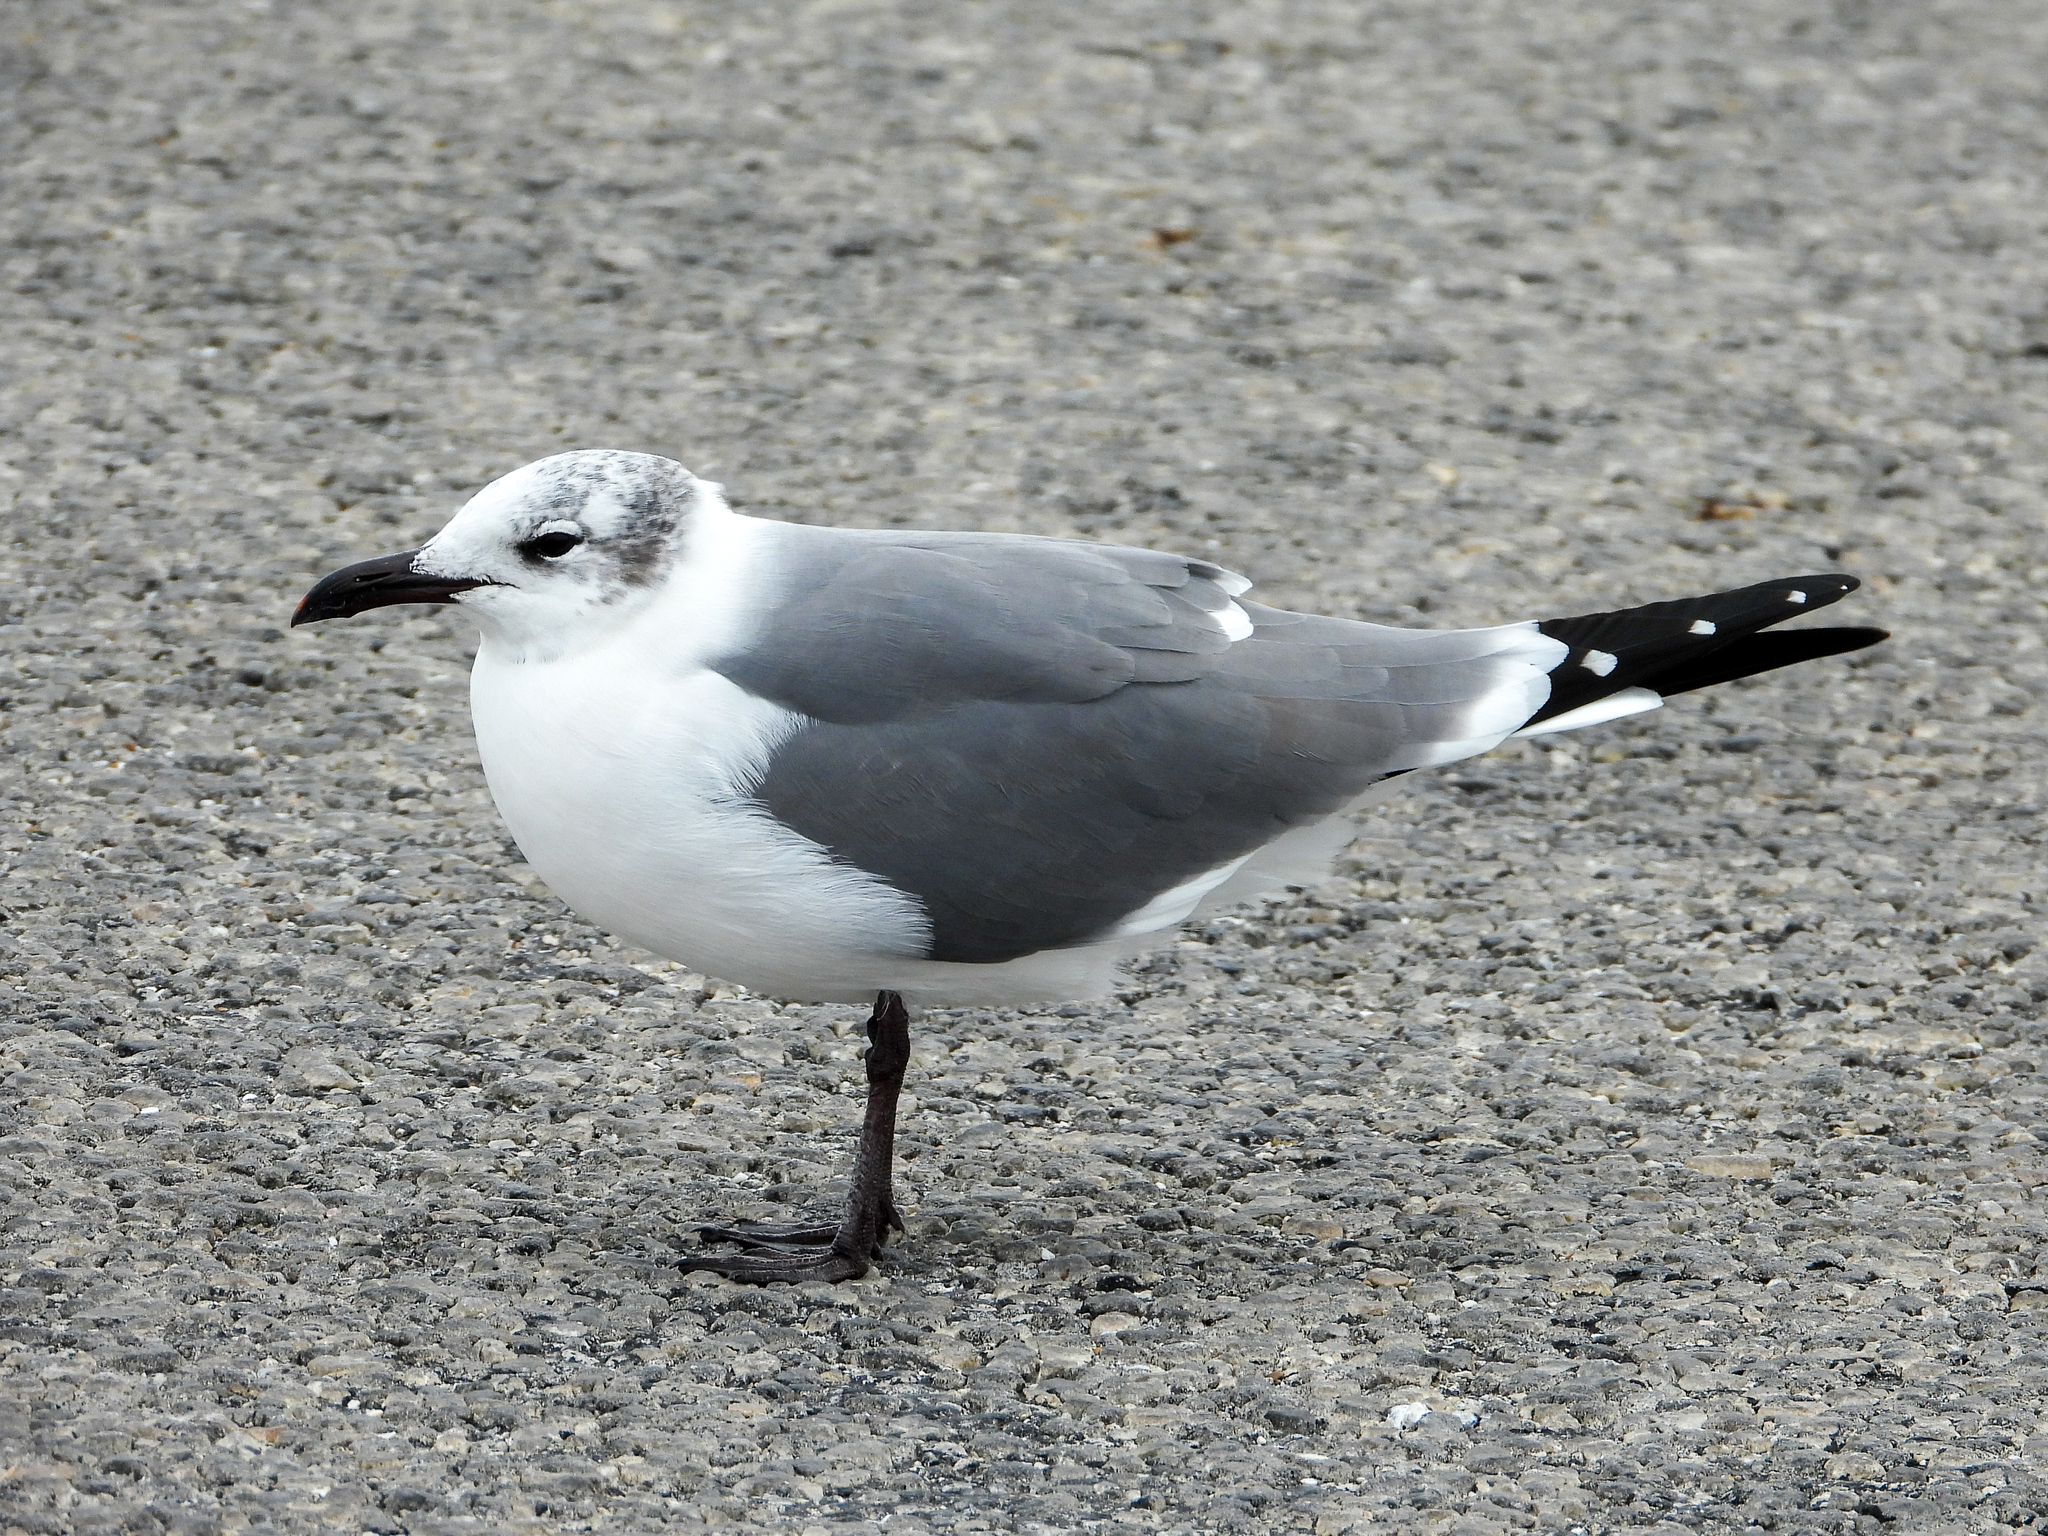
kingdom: Animalia
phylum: Chordata
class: Aves
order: Charadriiformes
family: Laridae
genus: Leucophaeus
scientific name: Leucophaeus atricilla
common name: Laughing gull
